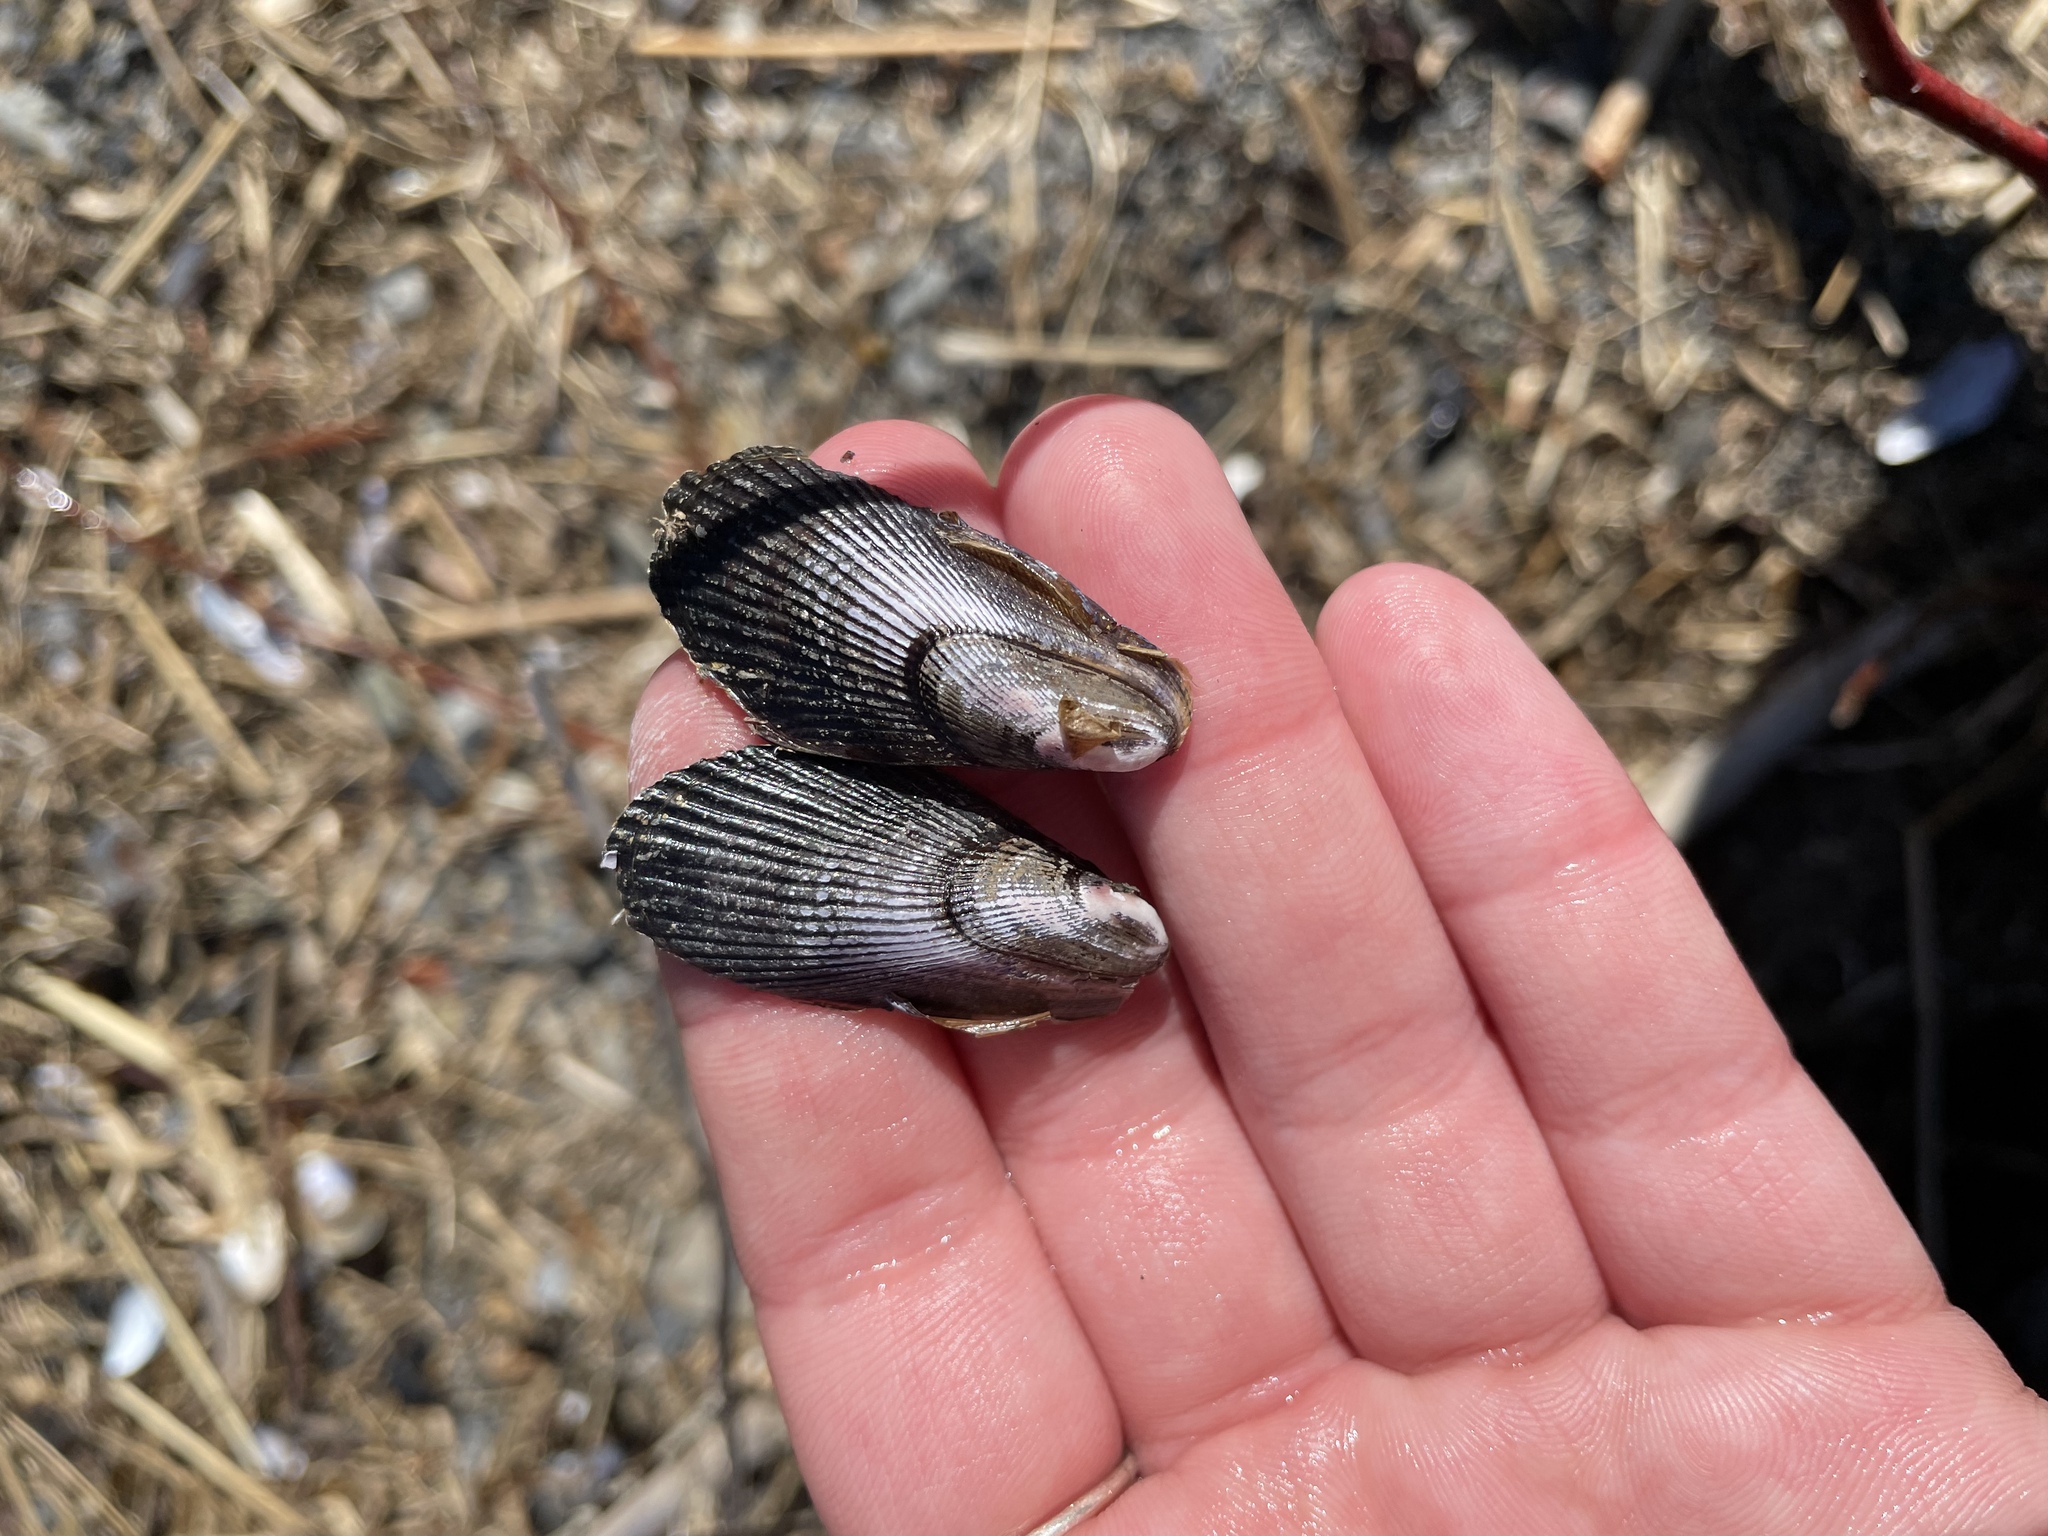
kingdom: Animalia
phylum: Mollusca
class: Bivalvia
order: Mytilida
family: Mytilidae
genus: Geukensia
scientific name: Geukensia demissa
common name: Ribbed mussel
